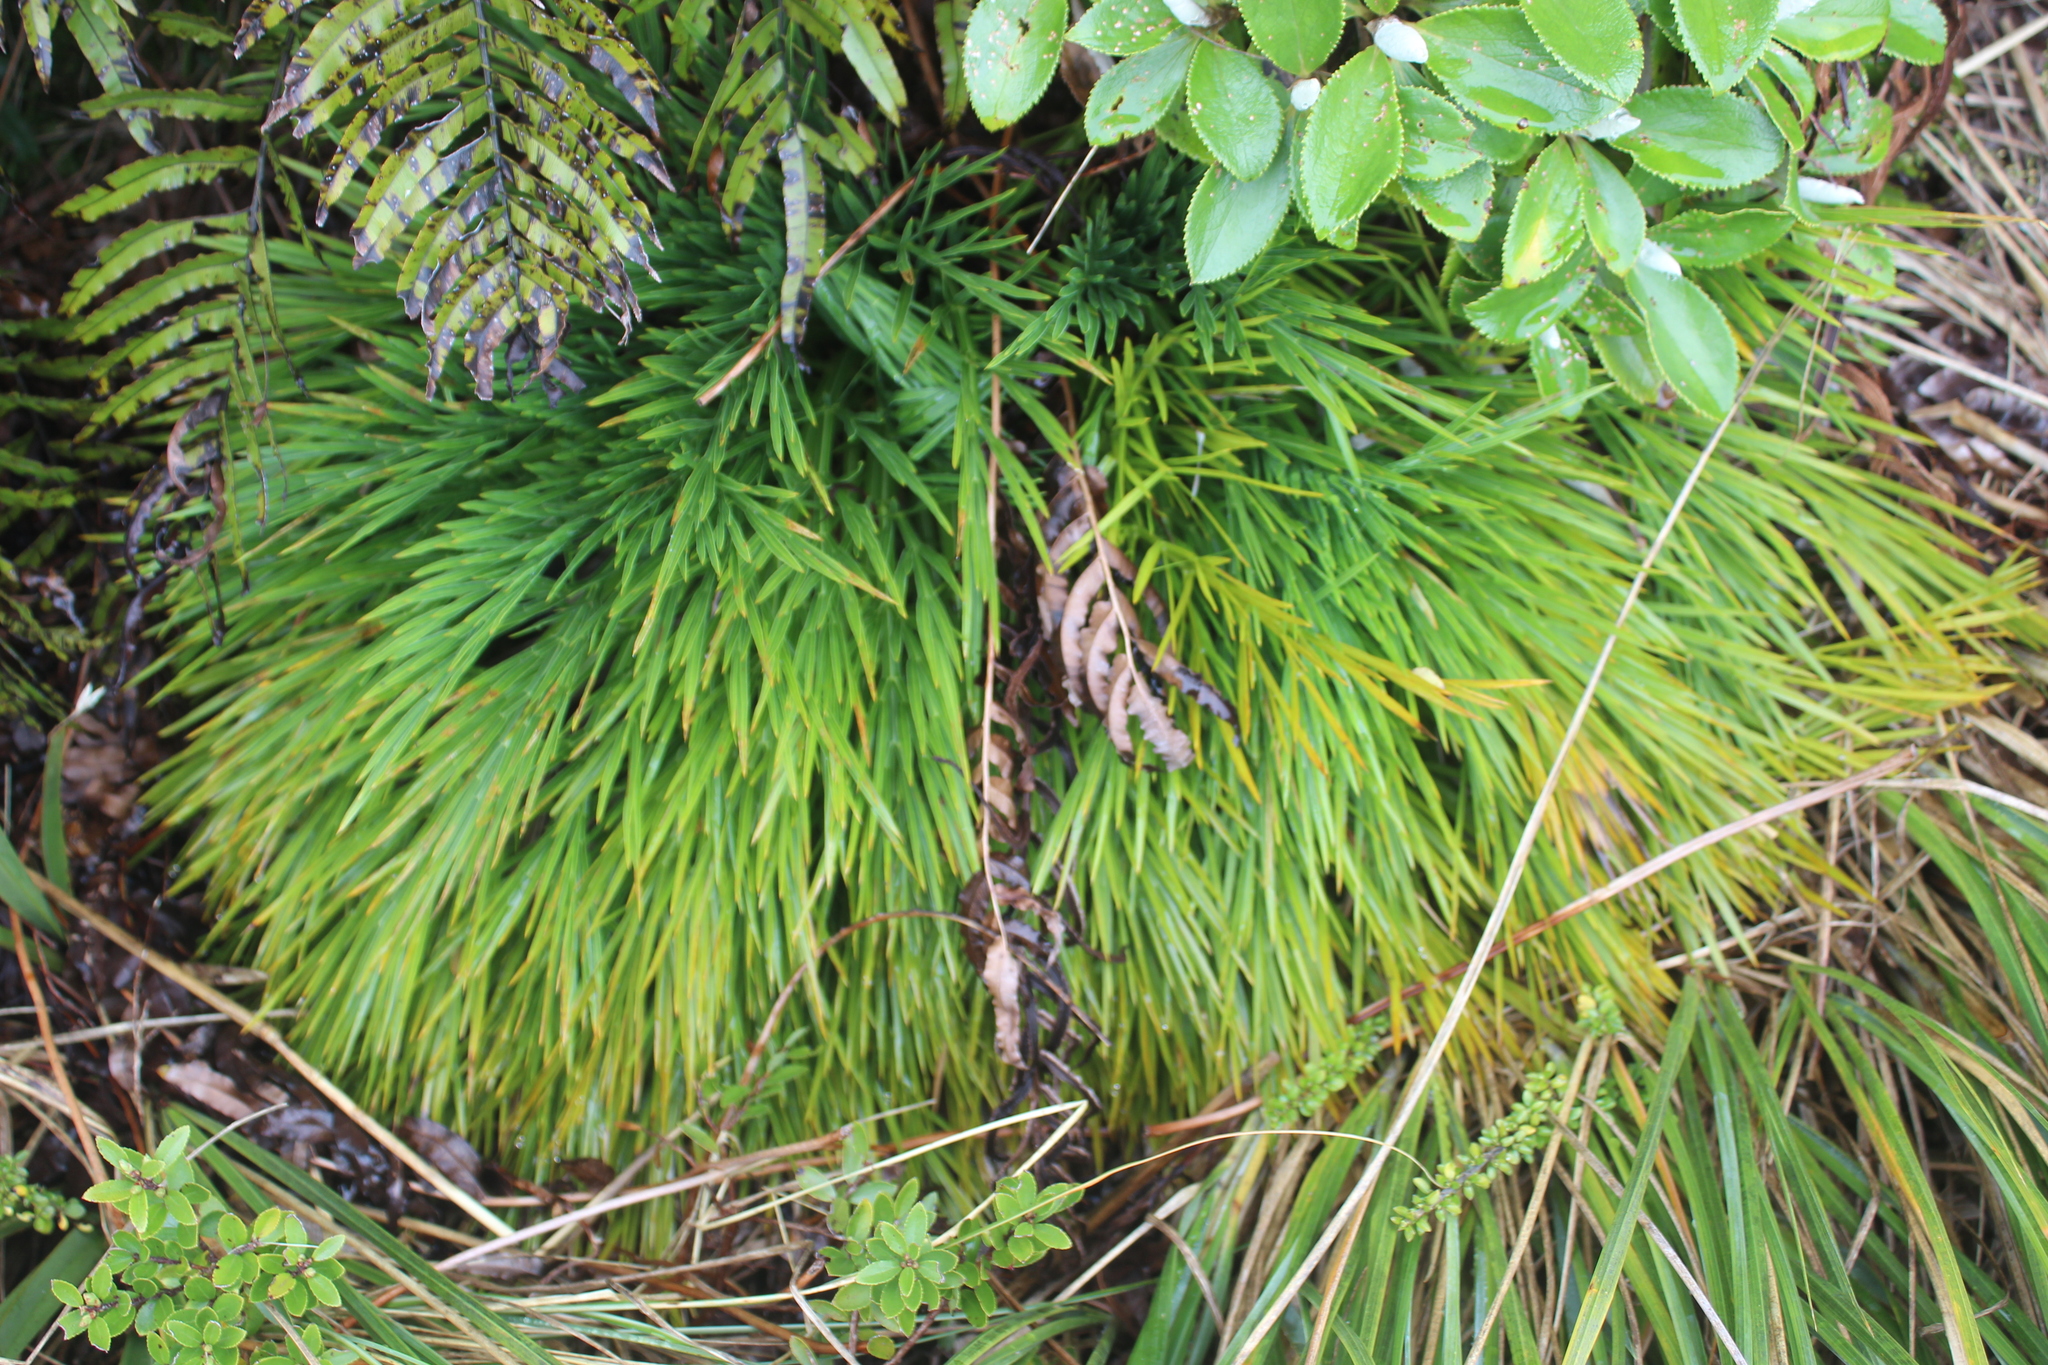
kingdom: Plantae
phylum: Tracheophyta
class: Magnoliopsida
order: Apiales
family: Apiaceae
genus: Aciphylla
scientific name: Aciphylla dissecta
